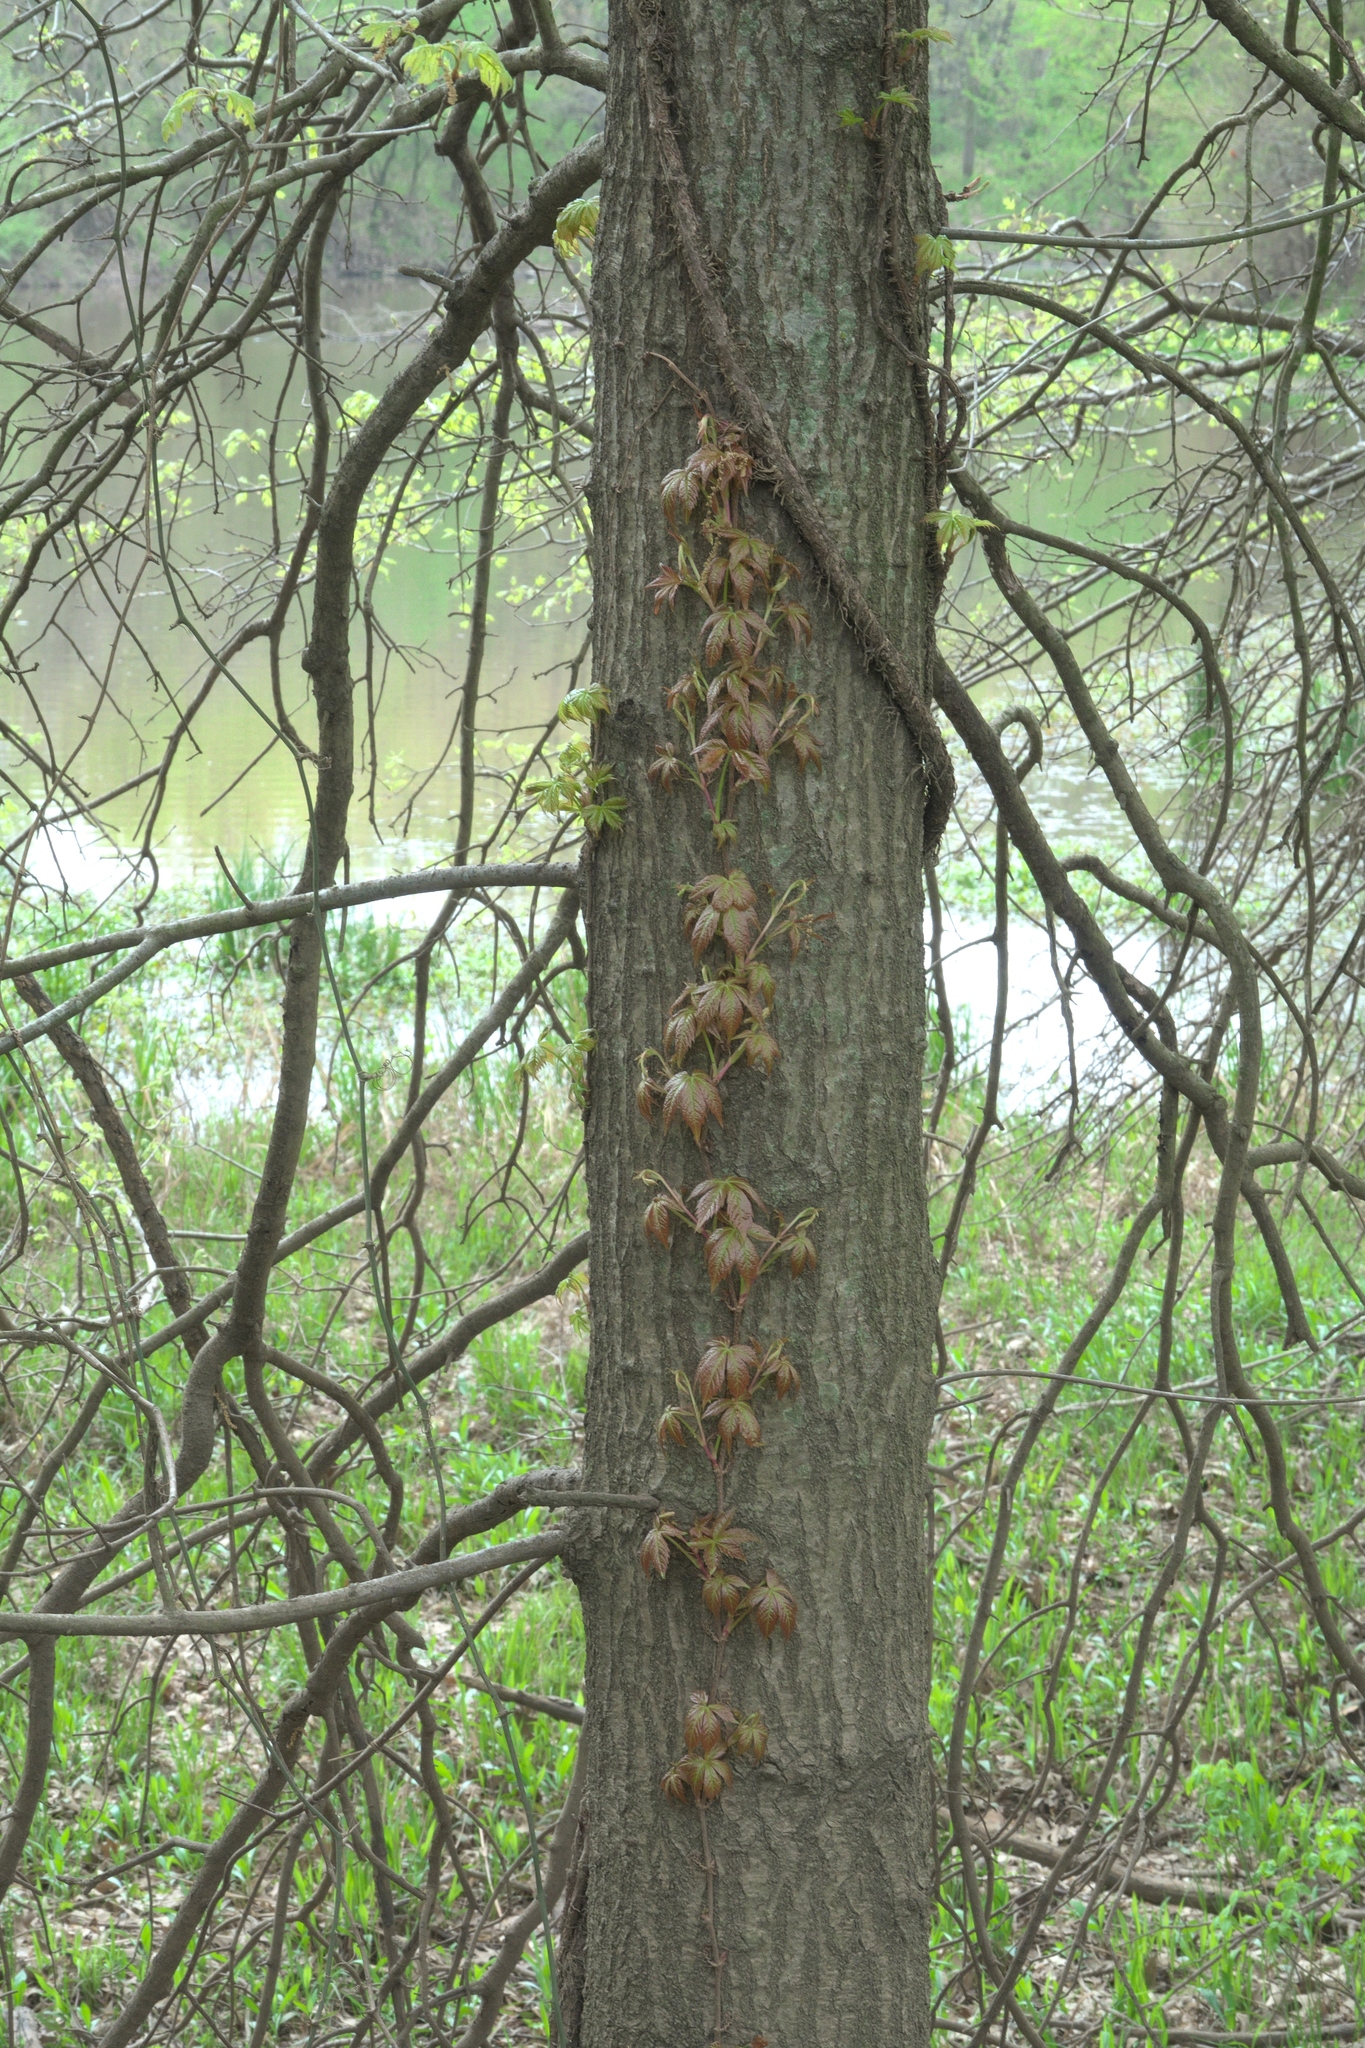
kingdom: Plantae
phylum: Tracheophyta
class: Magnoliopsida
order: Vitales
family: Vitaceae
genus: Parthenocissus
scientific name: Parthenocissus quinquefolia
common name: Virginia-creeper
